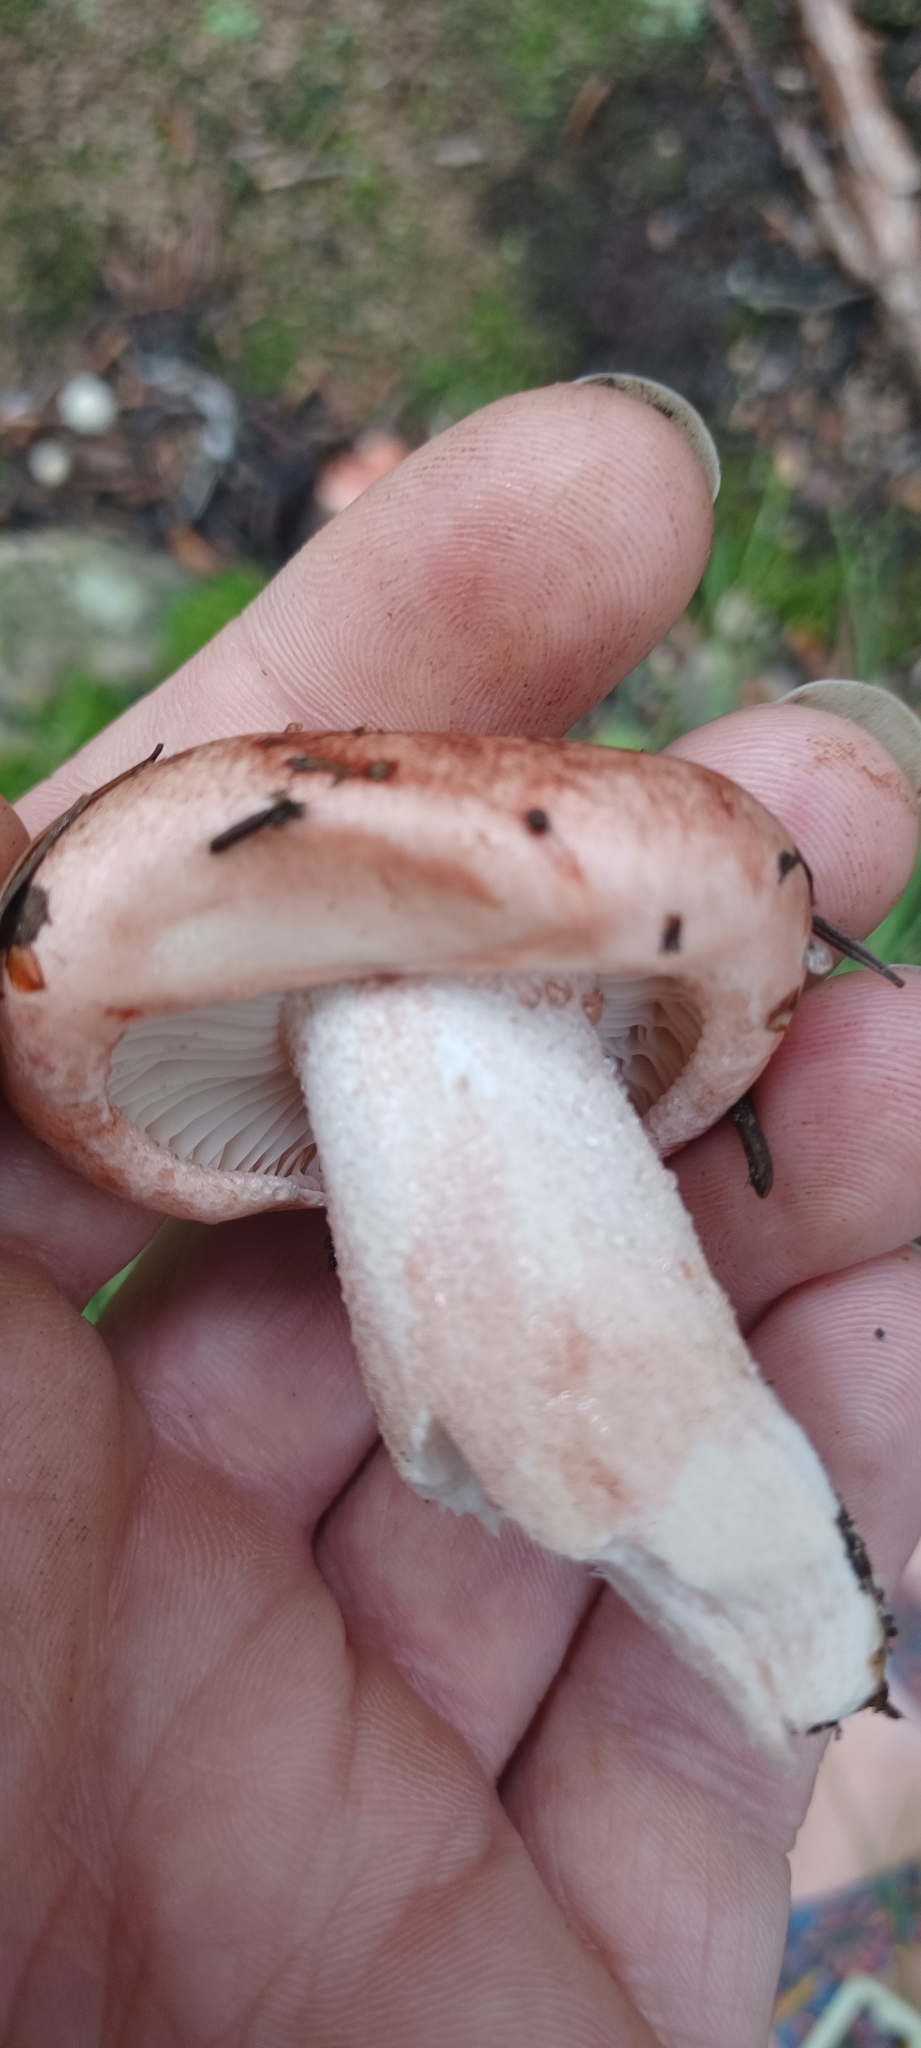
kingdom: Fungi
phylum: Basidiomycota
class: Agaricomycetes
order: Agaricales
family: Hygrophoraceae
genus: Hygrophorus
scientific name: Hygrophorus erubescens
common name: Blotched woodwax
